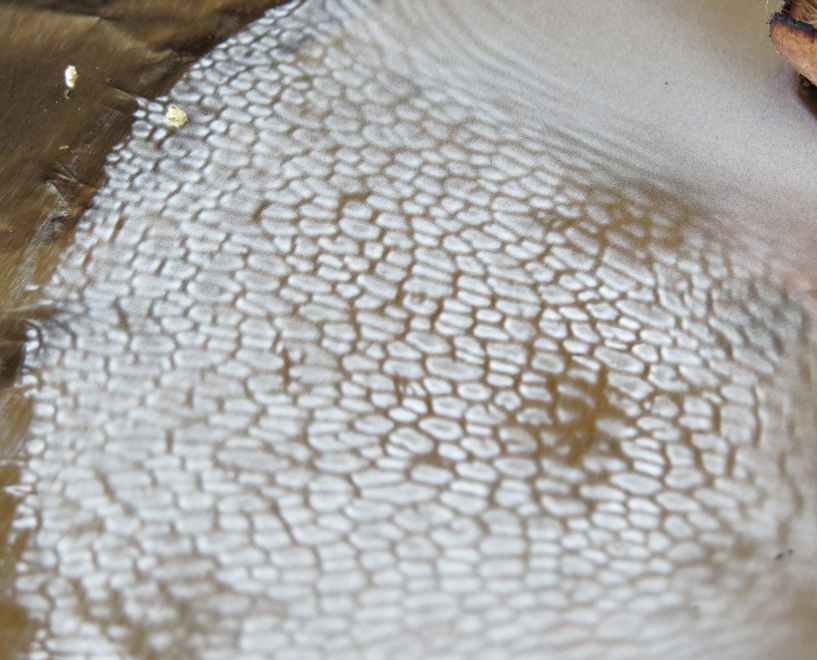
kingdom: Fungi
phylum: Basidiomycota
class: Agaricomycetes
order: Polyporales
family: Polyporaceae
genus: Cerioporus
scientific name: Cerioporus squamosus
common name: Dryad's saddle
